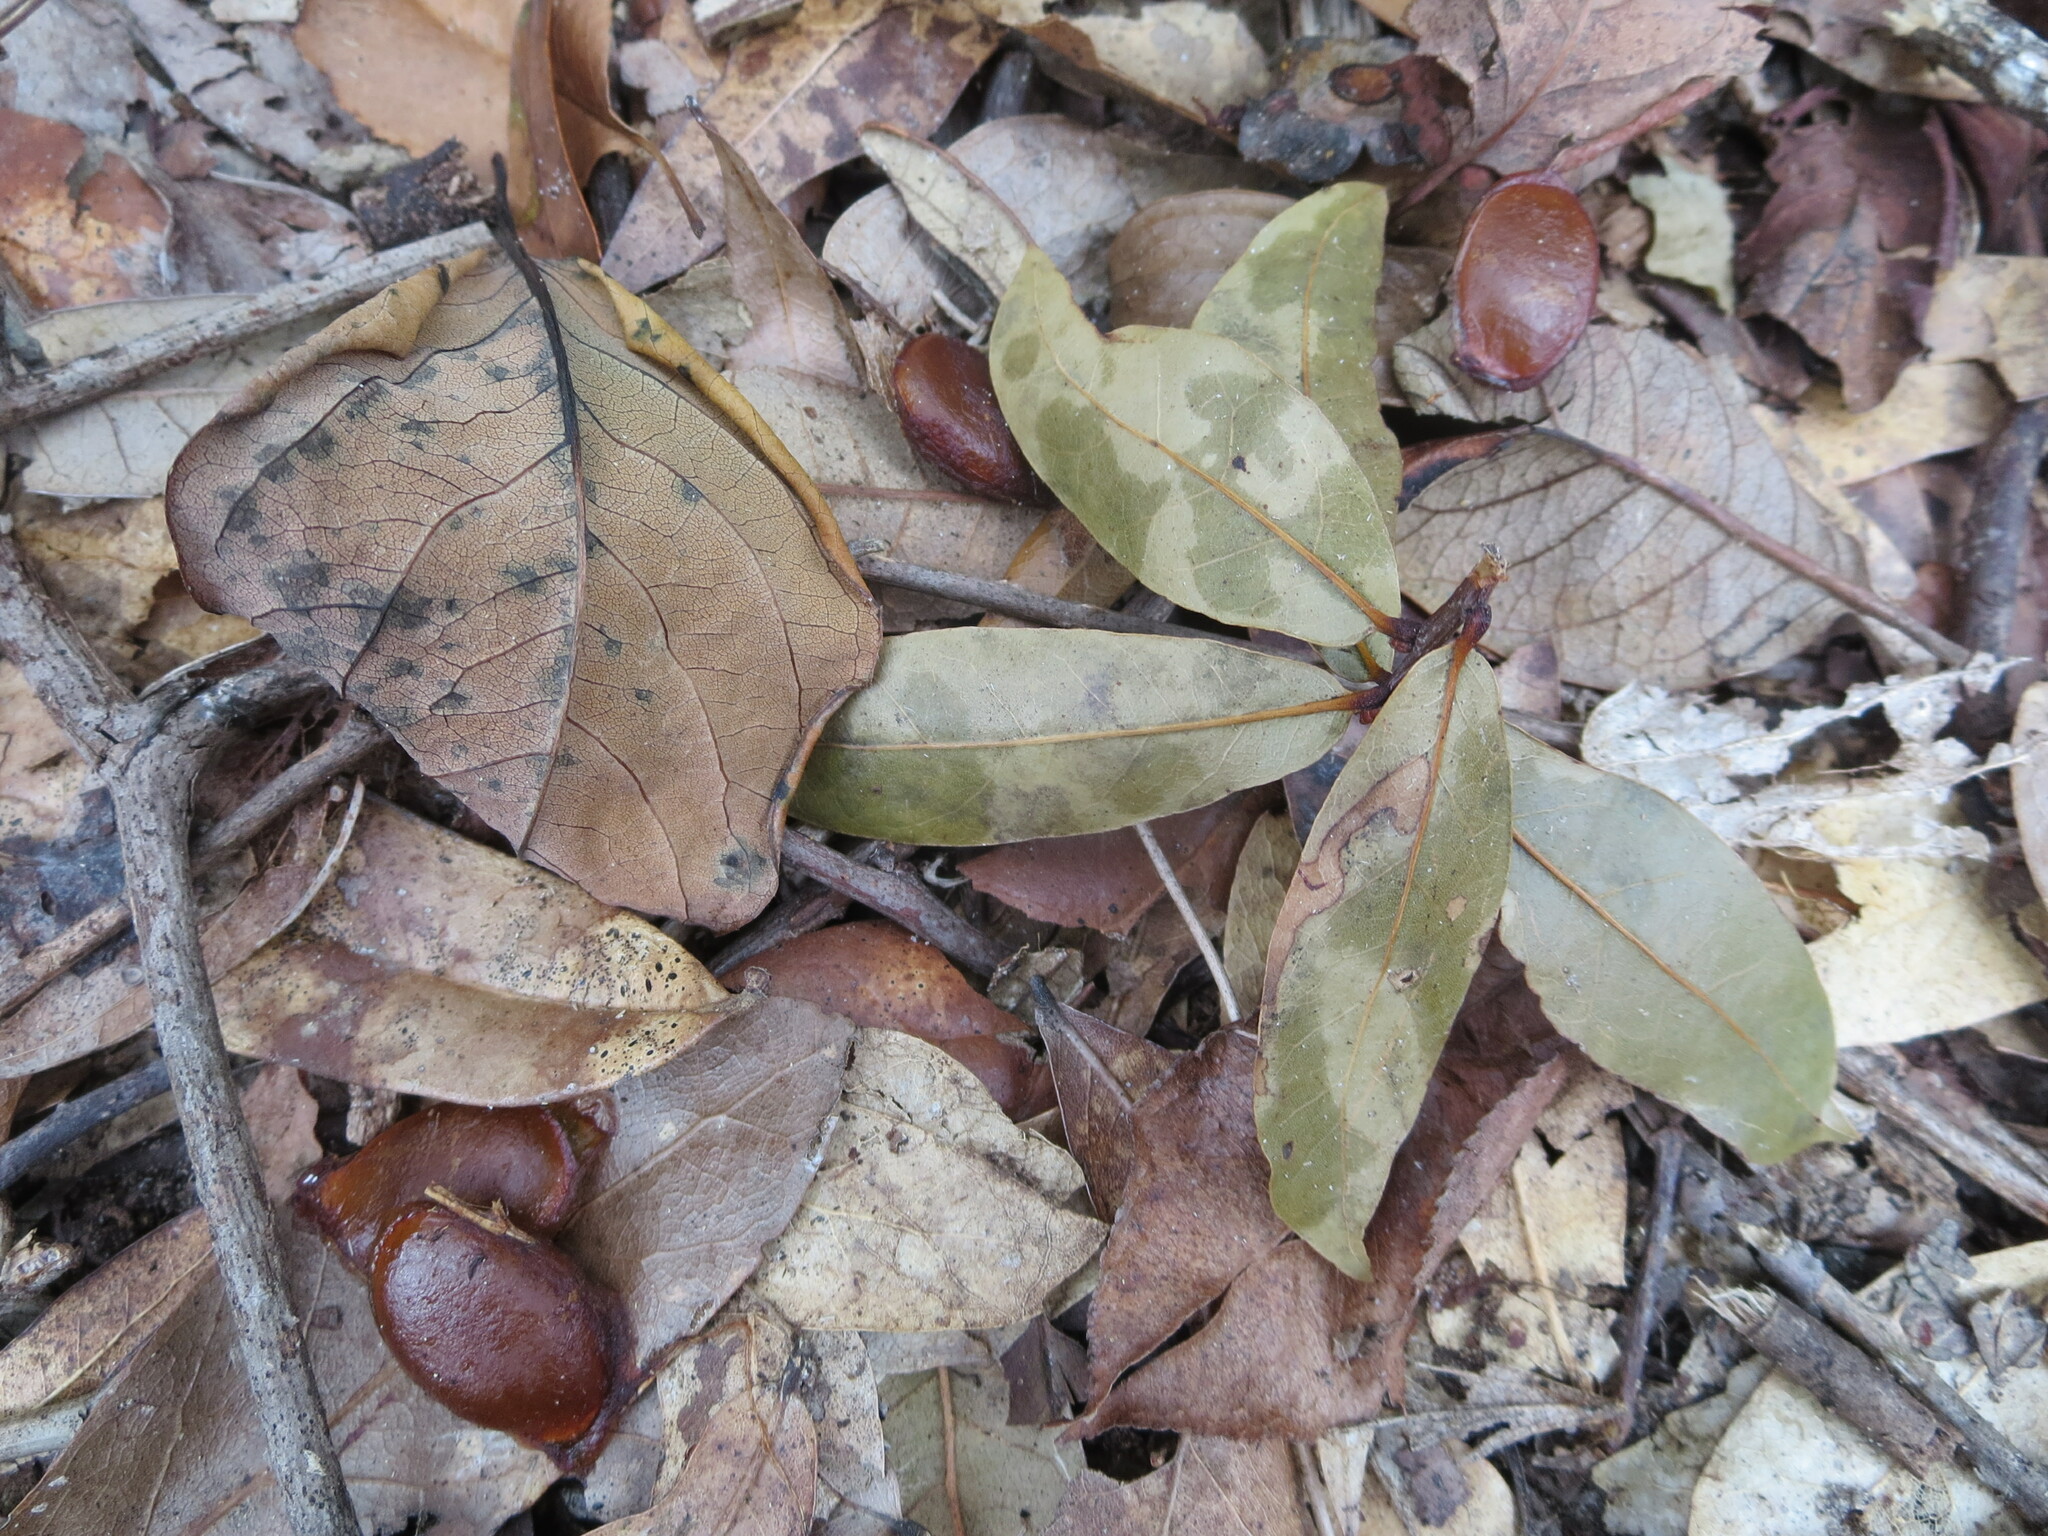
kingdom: Plantae
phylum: Tracheophyta
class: Magnoliopsida
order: Ericales
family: Ebenaceae
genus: Diospyros
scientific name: Diospyros virginiana
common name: Persimmon
